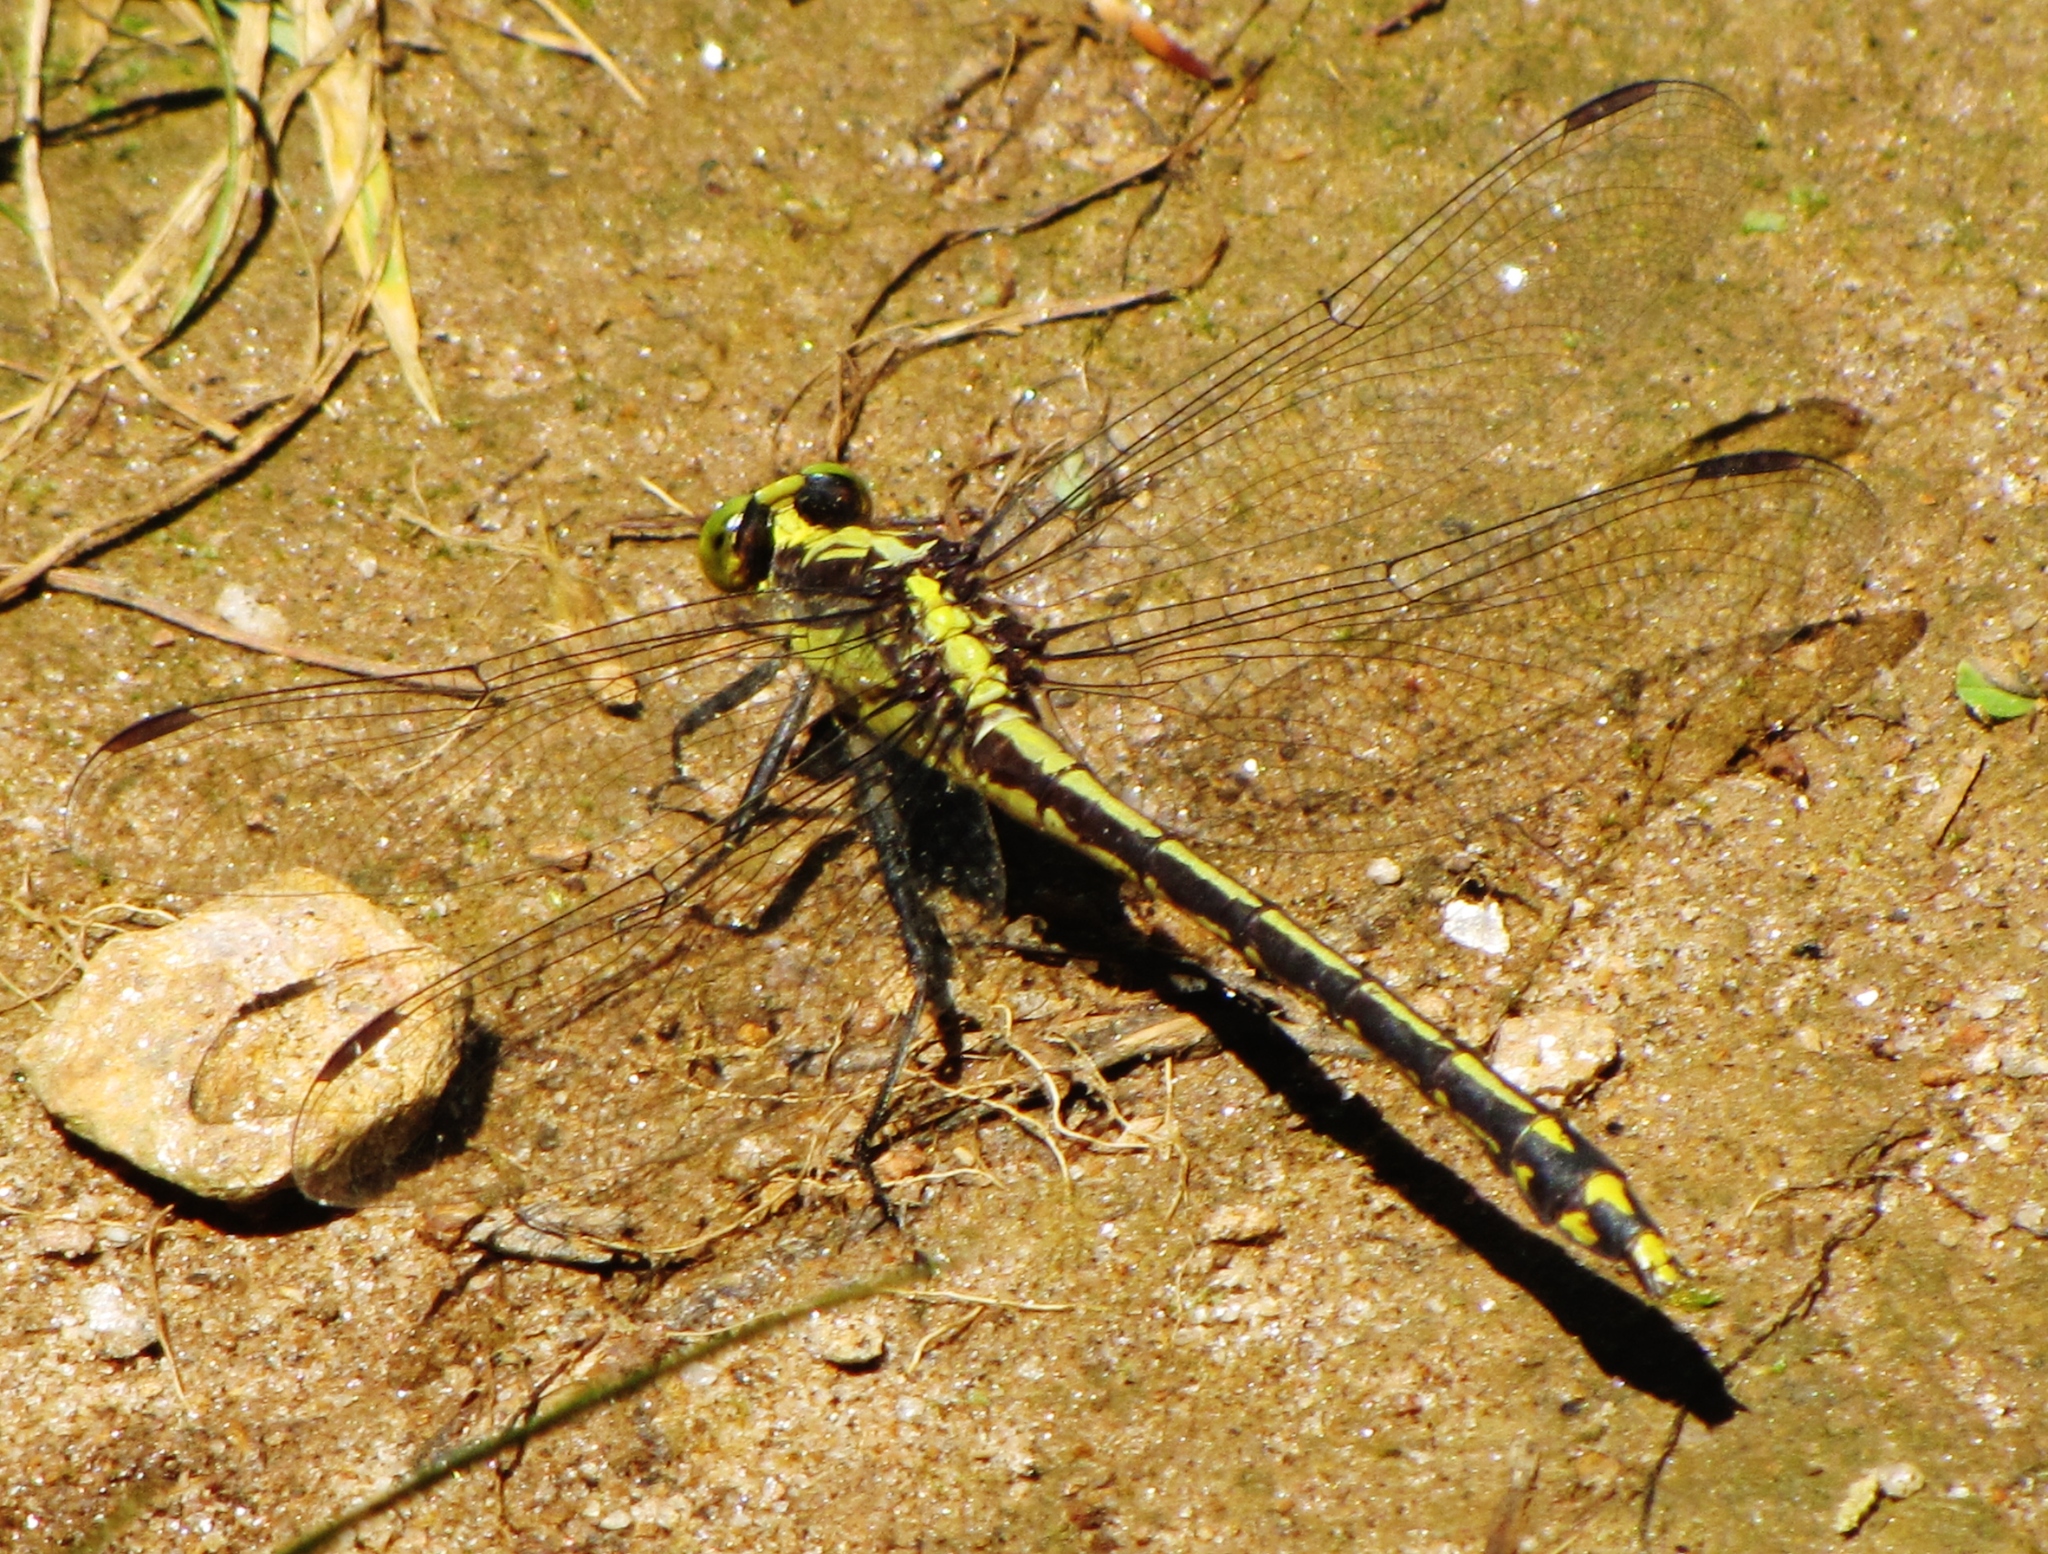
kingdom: Animalia
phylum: Arthropoda
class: Insecta
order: Odonata
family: Gomphidae
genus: Dromogomphus
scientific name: Dromogomphus spinosus
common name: Black-shouldered spinyleg
